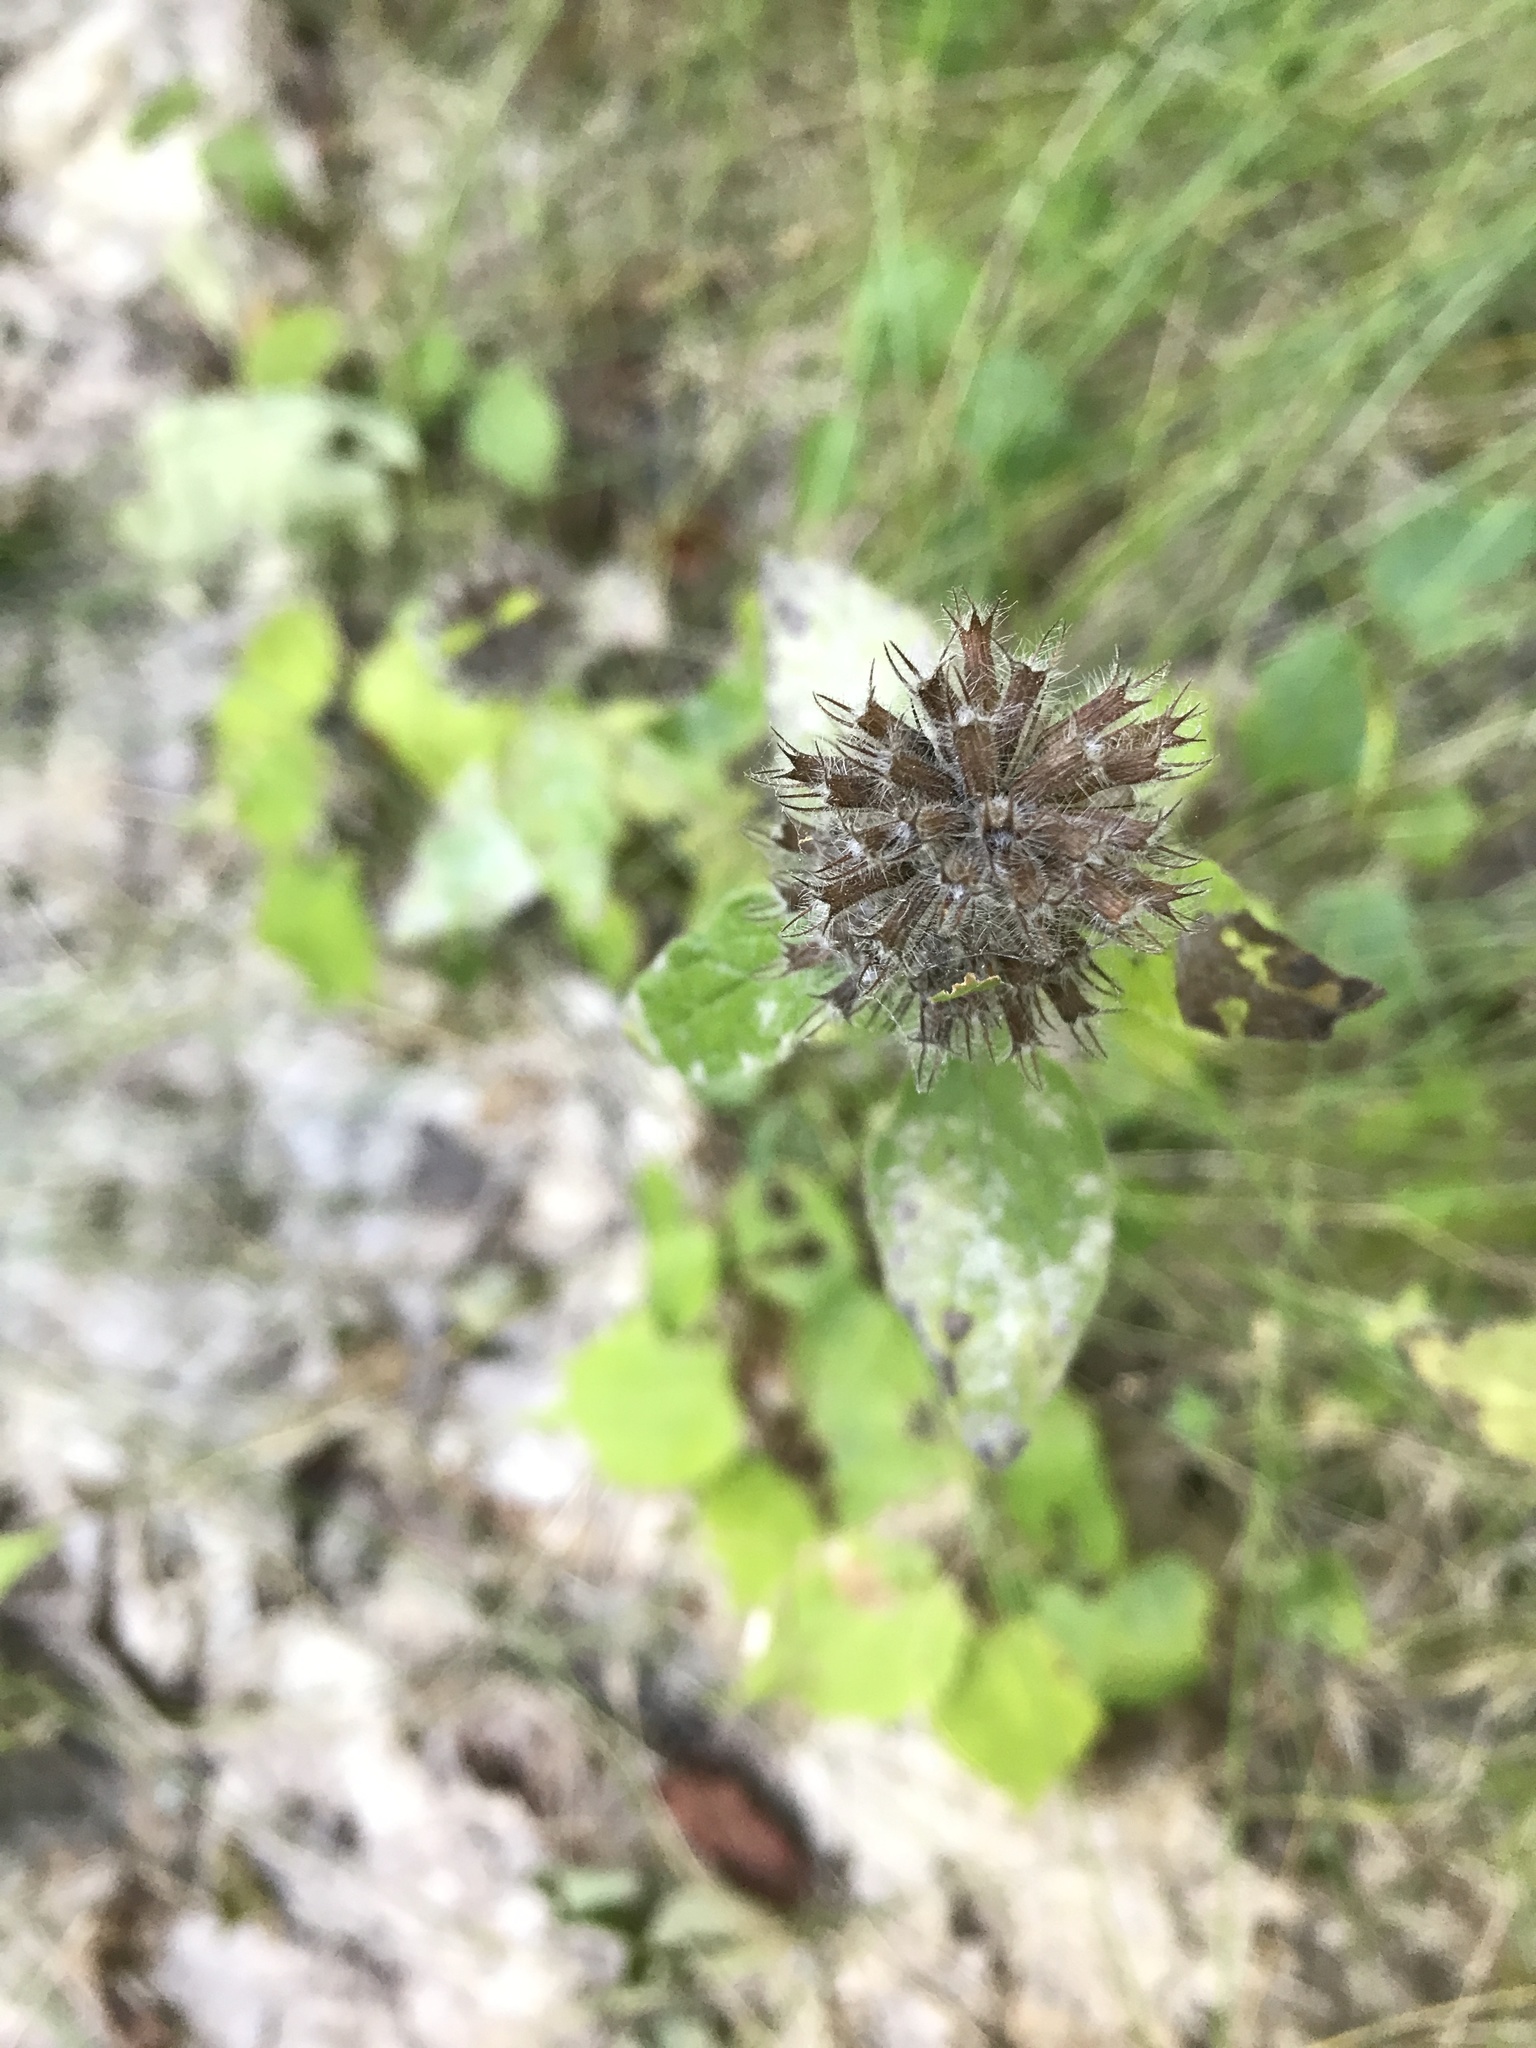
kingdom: Plantae
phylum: Tracheophyta
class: Magnoliopsida
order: Lamiales
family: Lamiaceae
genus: Clinopodium
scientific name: Clinopodium vulgare
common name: Wild basil
